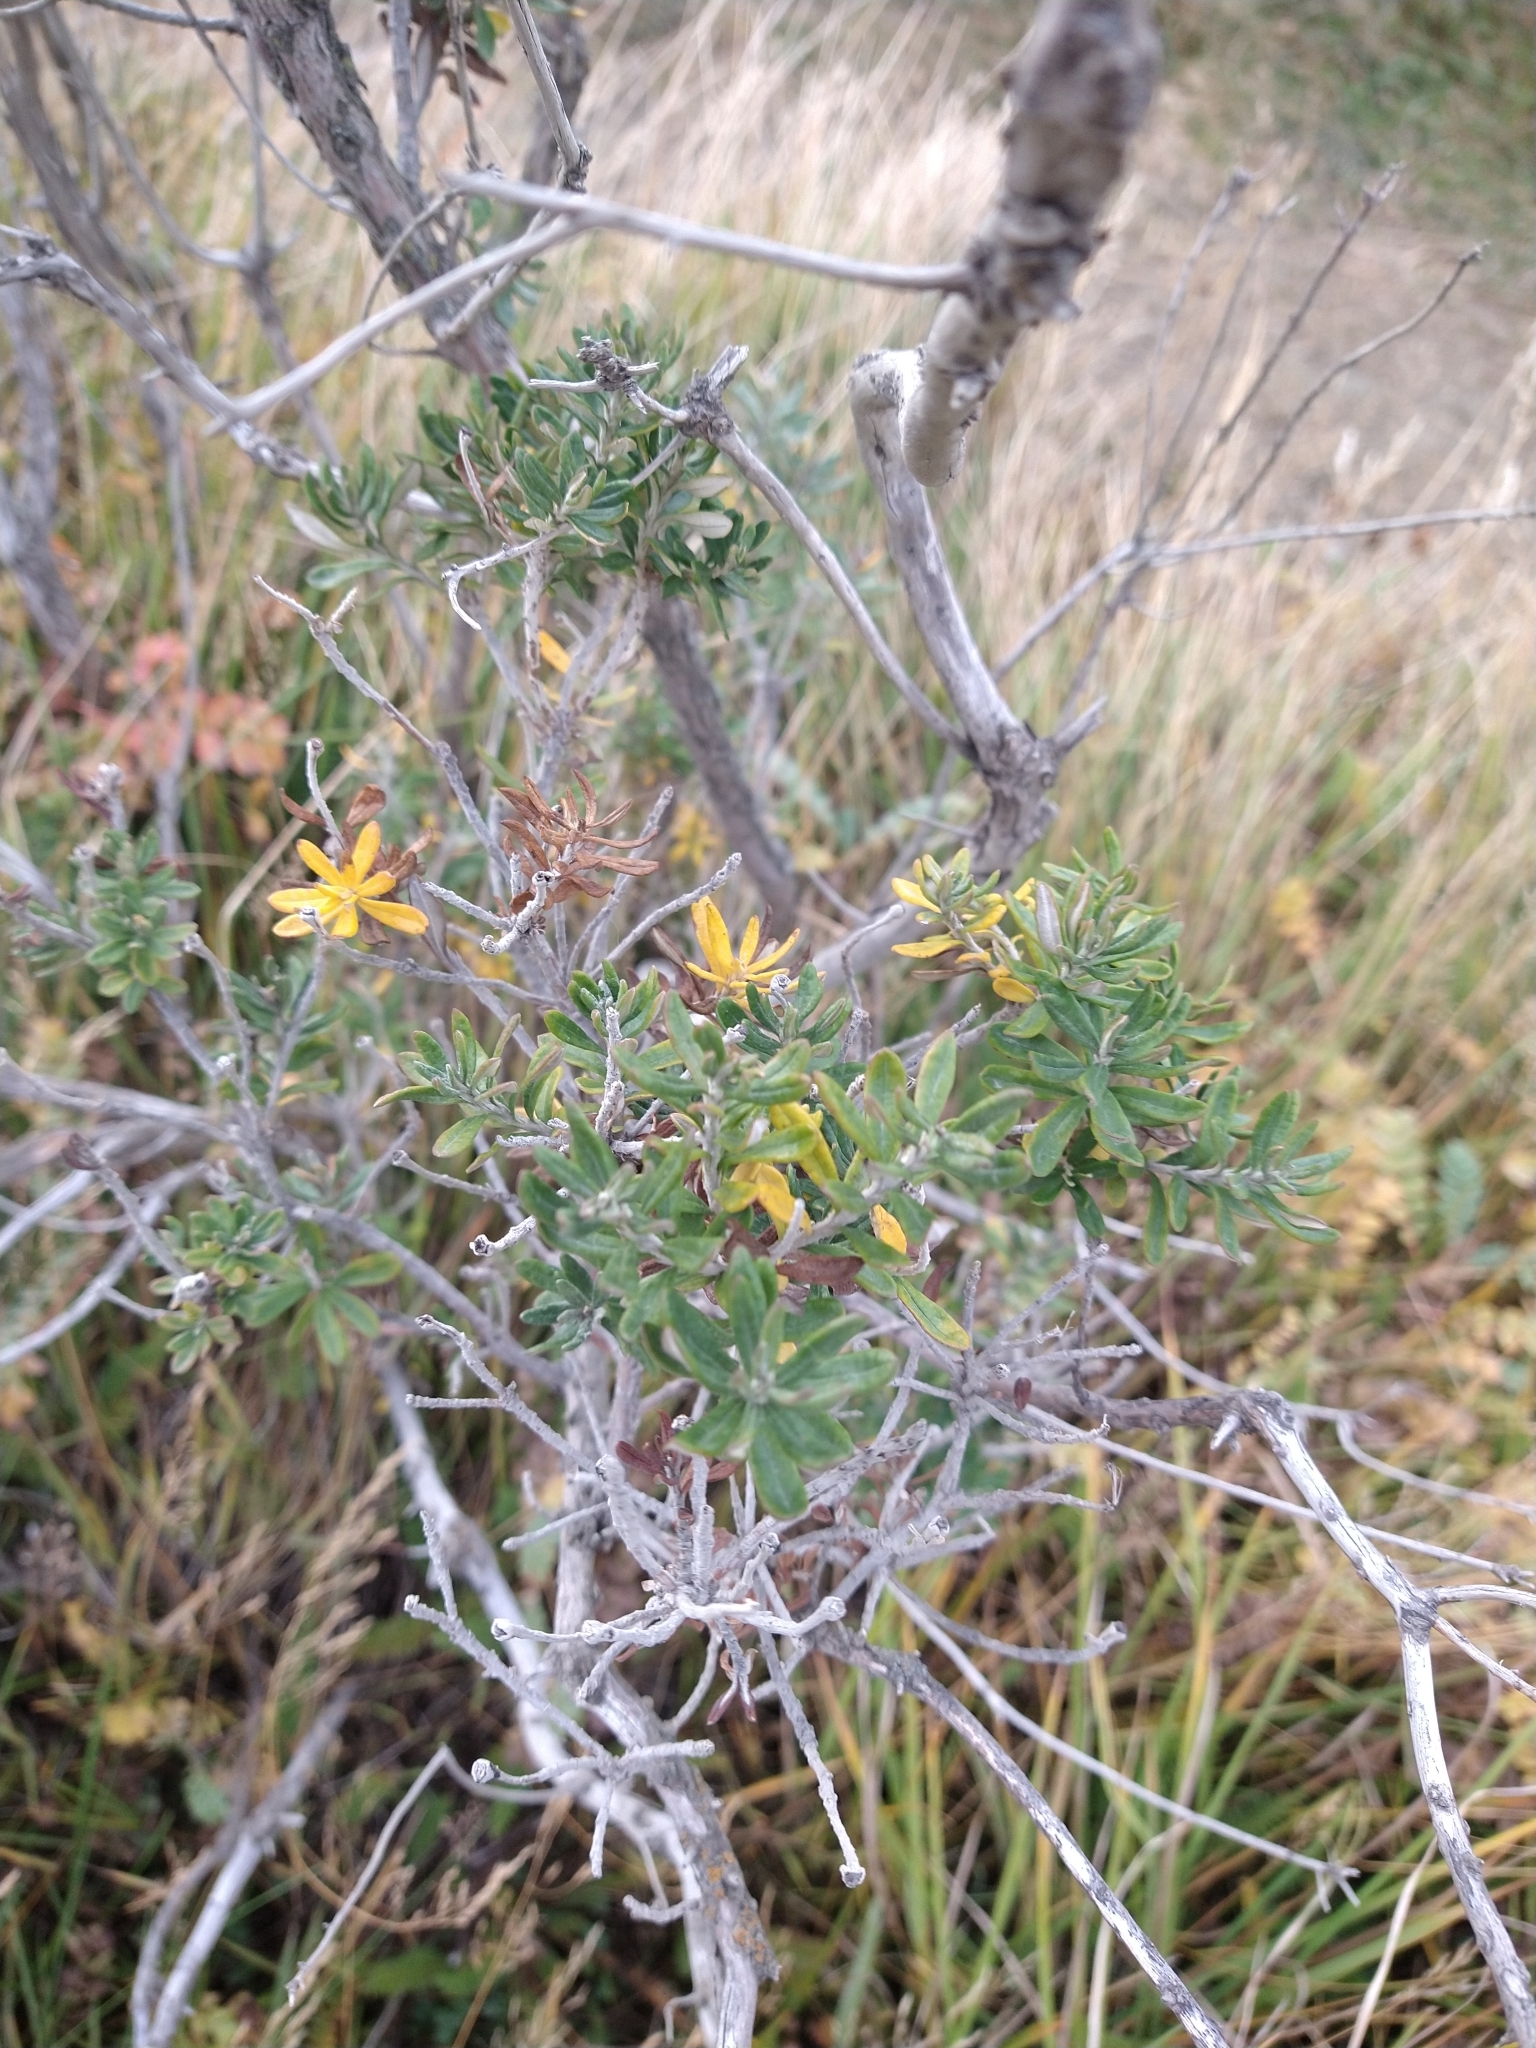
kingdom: Plantae
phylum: Tracheophyta
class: Magnoliopsida
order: Asterales
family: Asteraceae
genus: Chiliotrichum
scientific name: Chiliotrichum diffusum
